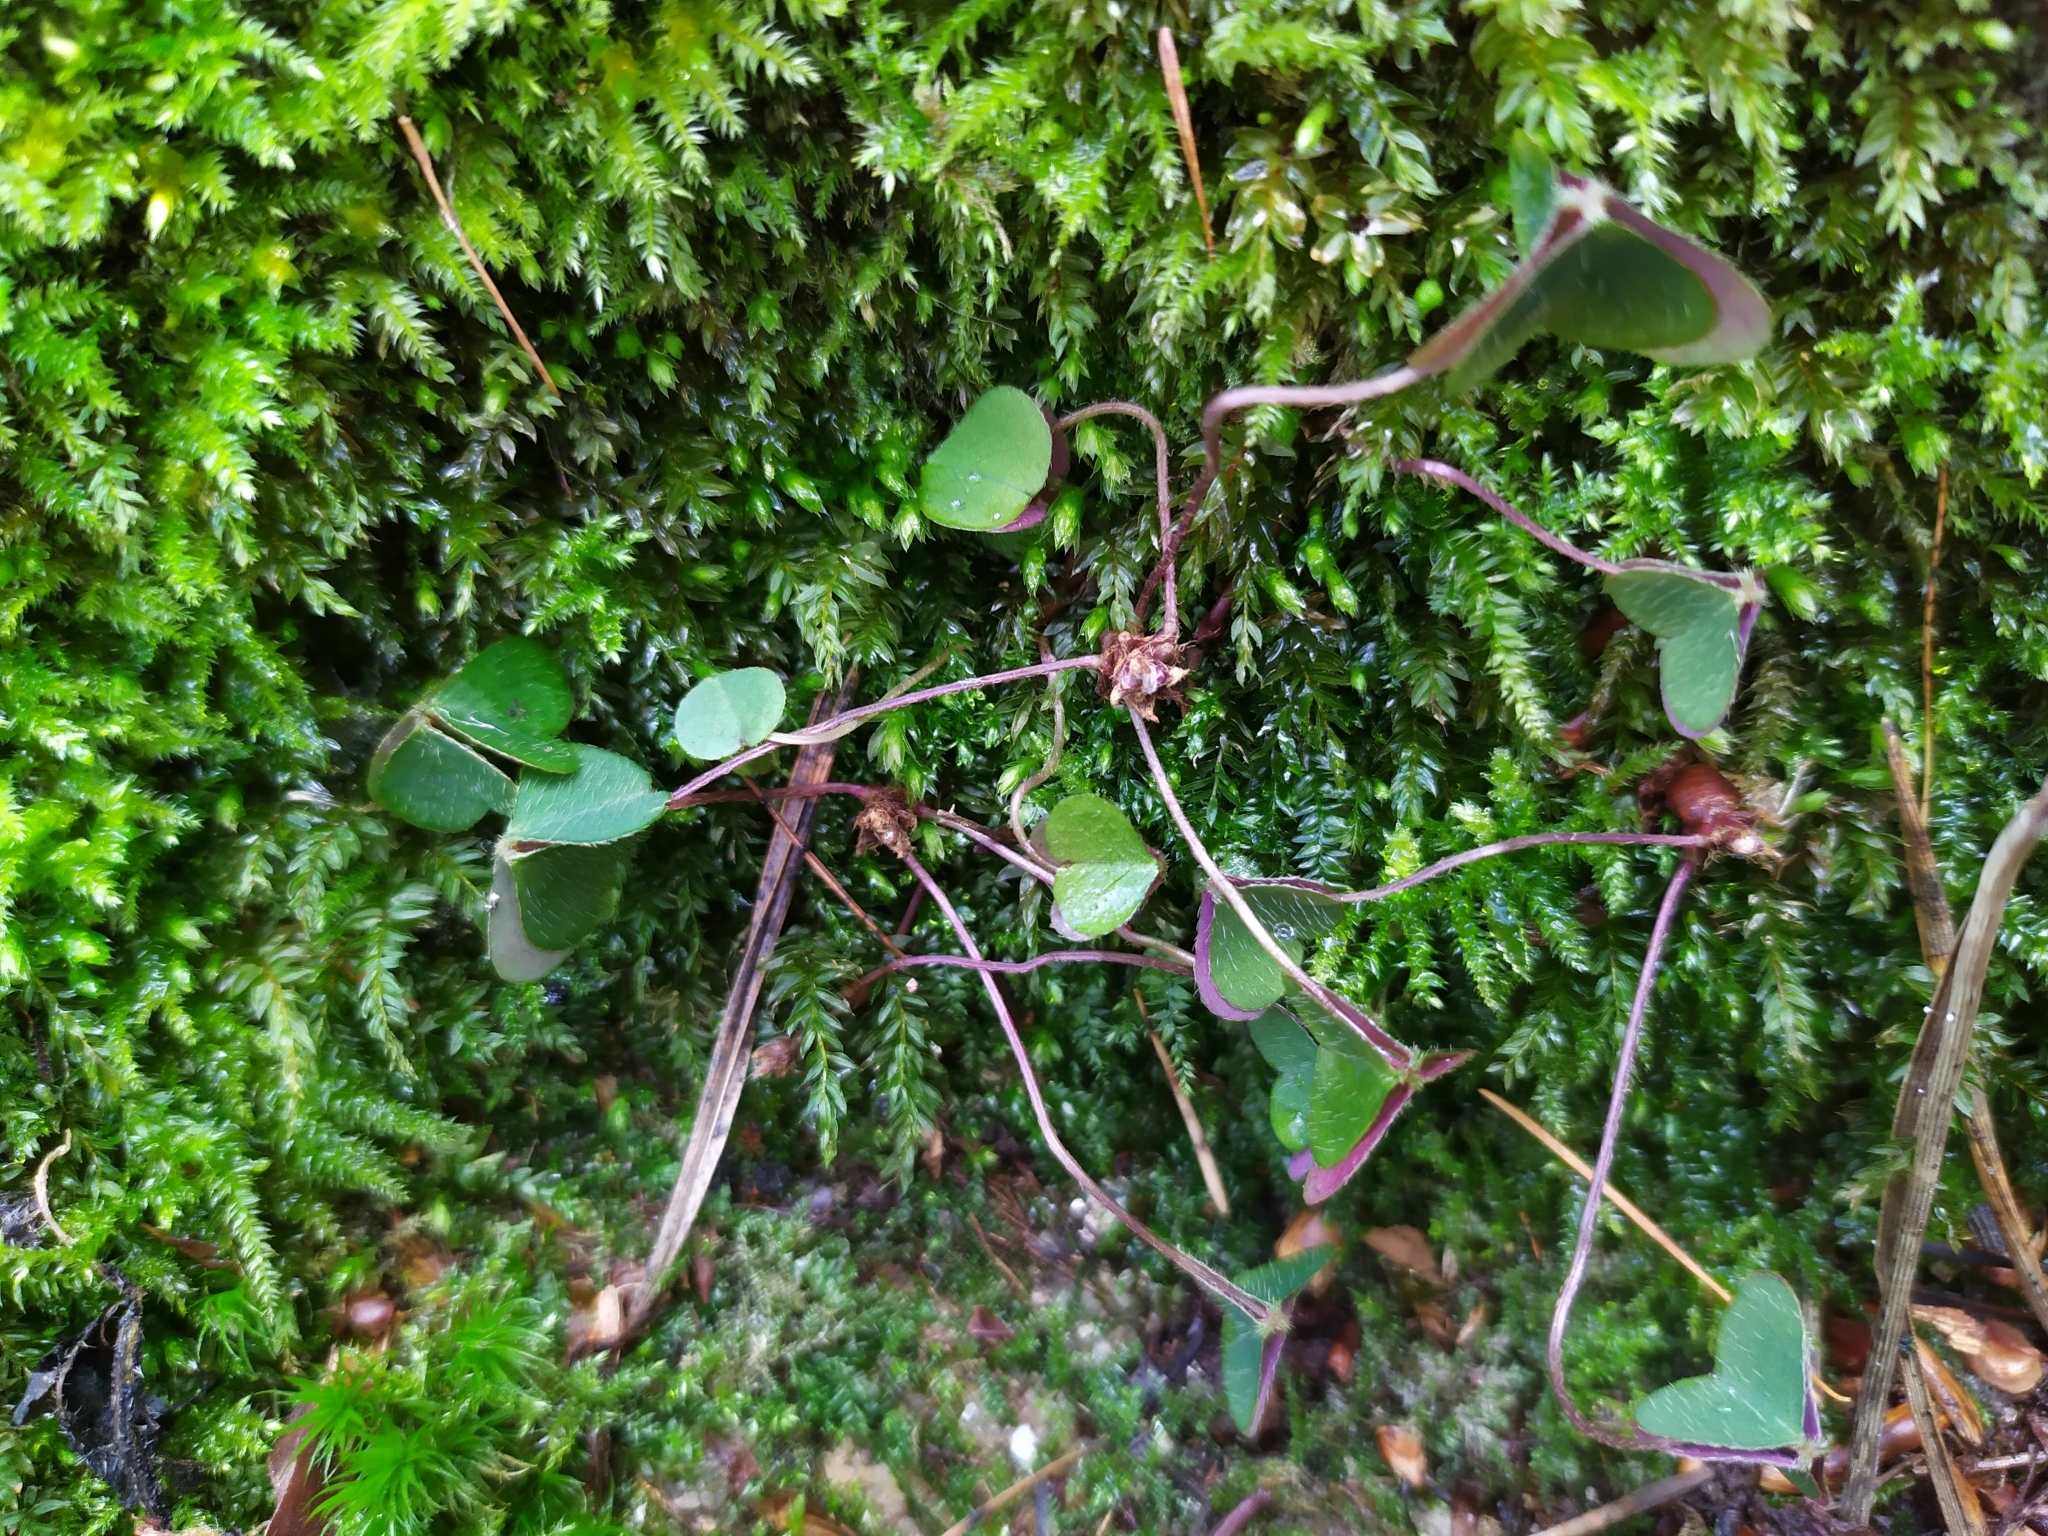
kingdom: Plantae
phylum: Tracheophyta
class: Magnoliopsida
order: Oxalidales
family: Oxalidaceae
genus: Oxalis
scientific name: Oxalis acetosella
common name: Wood-sorrel
